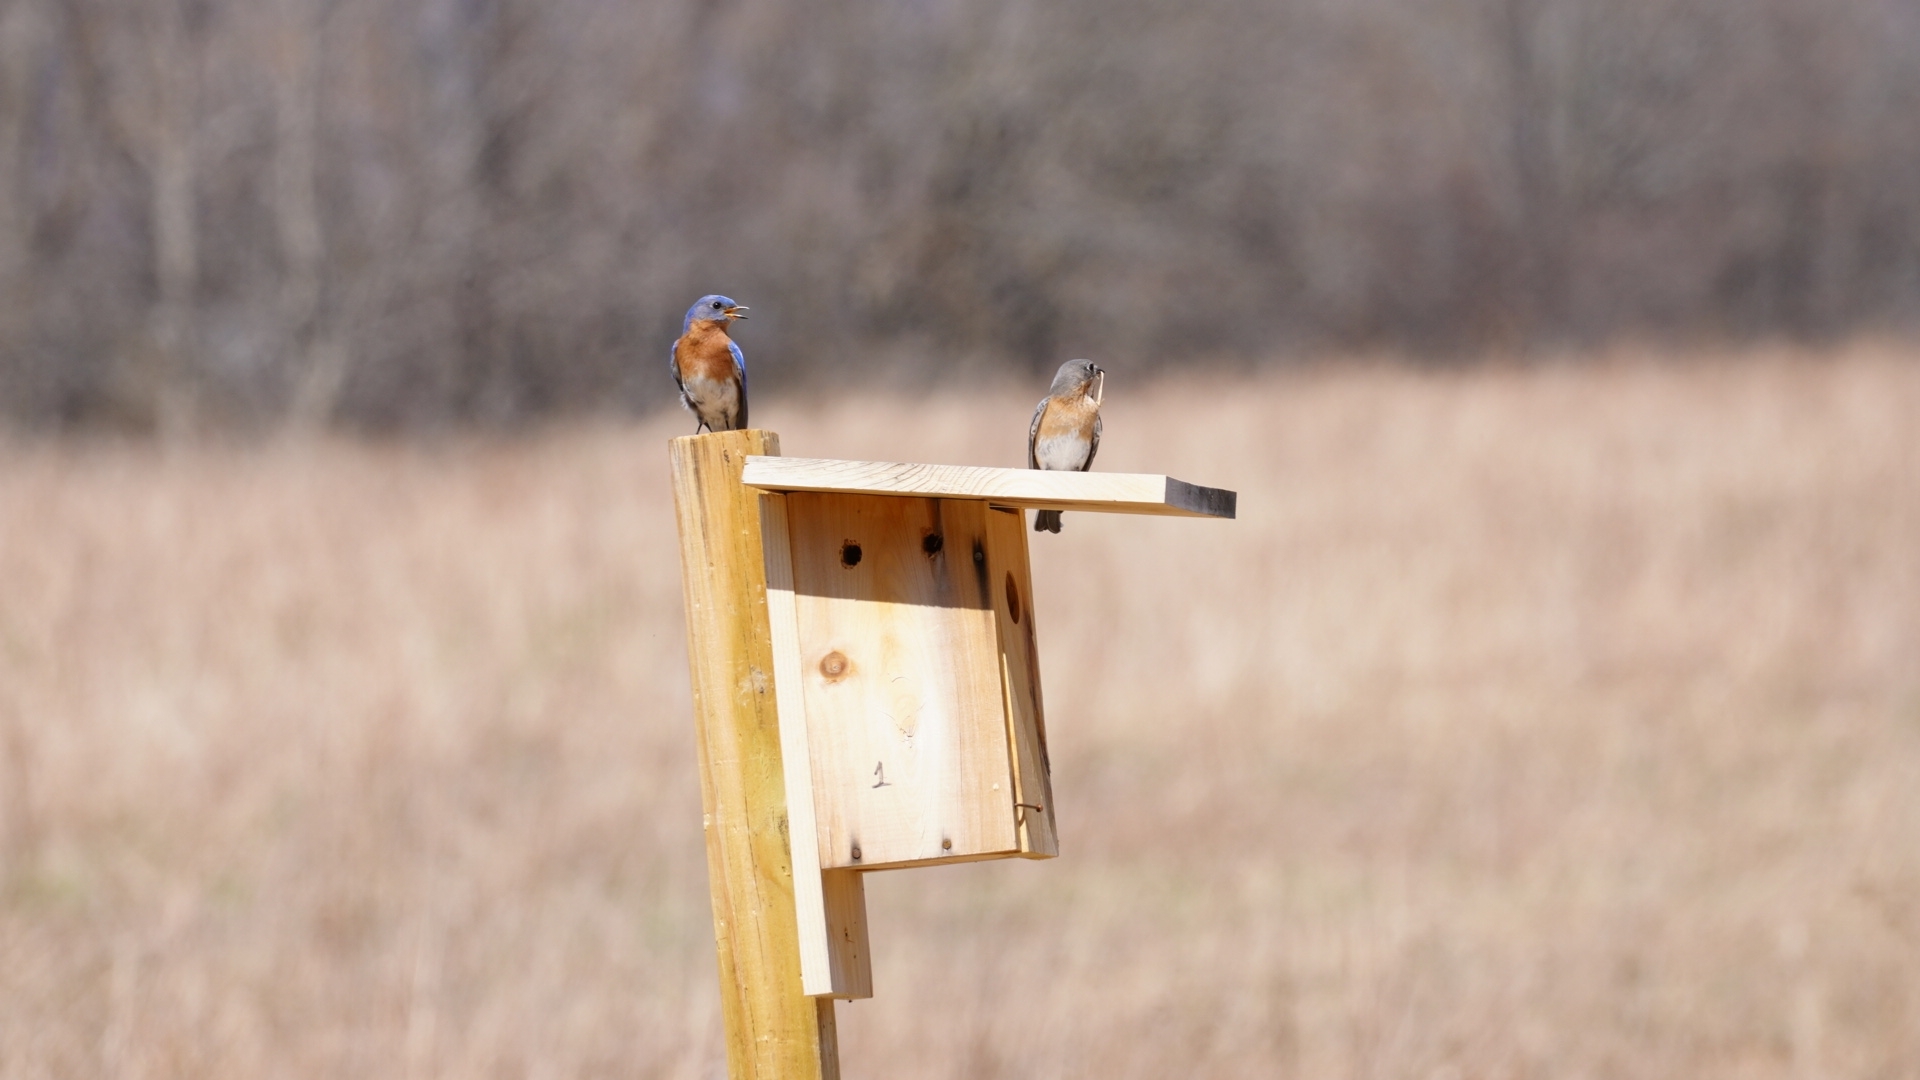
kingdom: Animalia
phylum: Chordata
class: Aves
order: Passeriformes
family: Turdidae
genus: Sialia
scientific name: Sialia sialis
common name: Eastern bluebird
